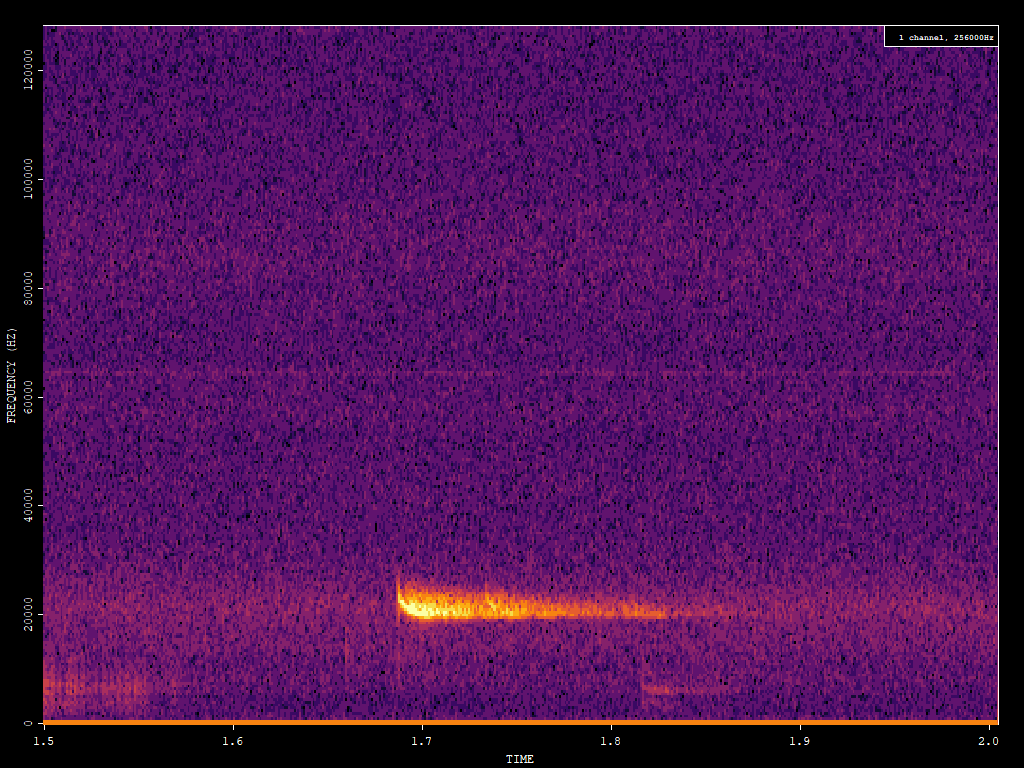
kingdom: Animalia
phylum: Chordata
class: Mammalia
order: Chiroptera
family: Vespertilionidae
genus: Nyctalus
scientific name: Nyctalus noctula
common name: Noctule
